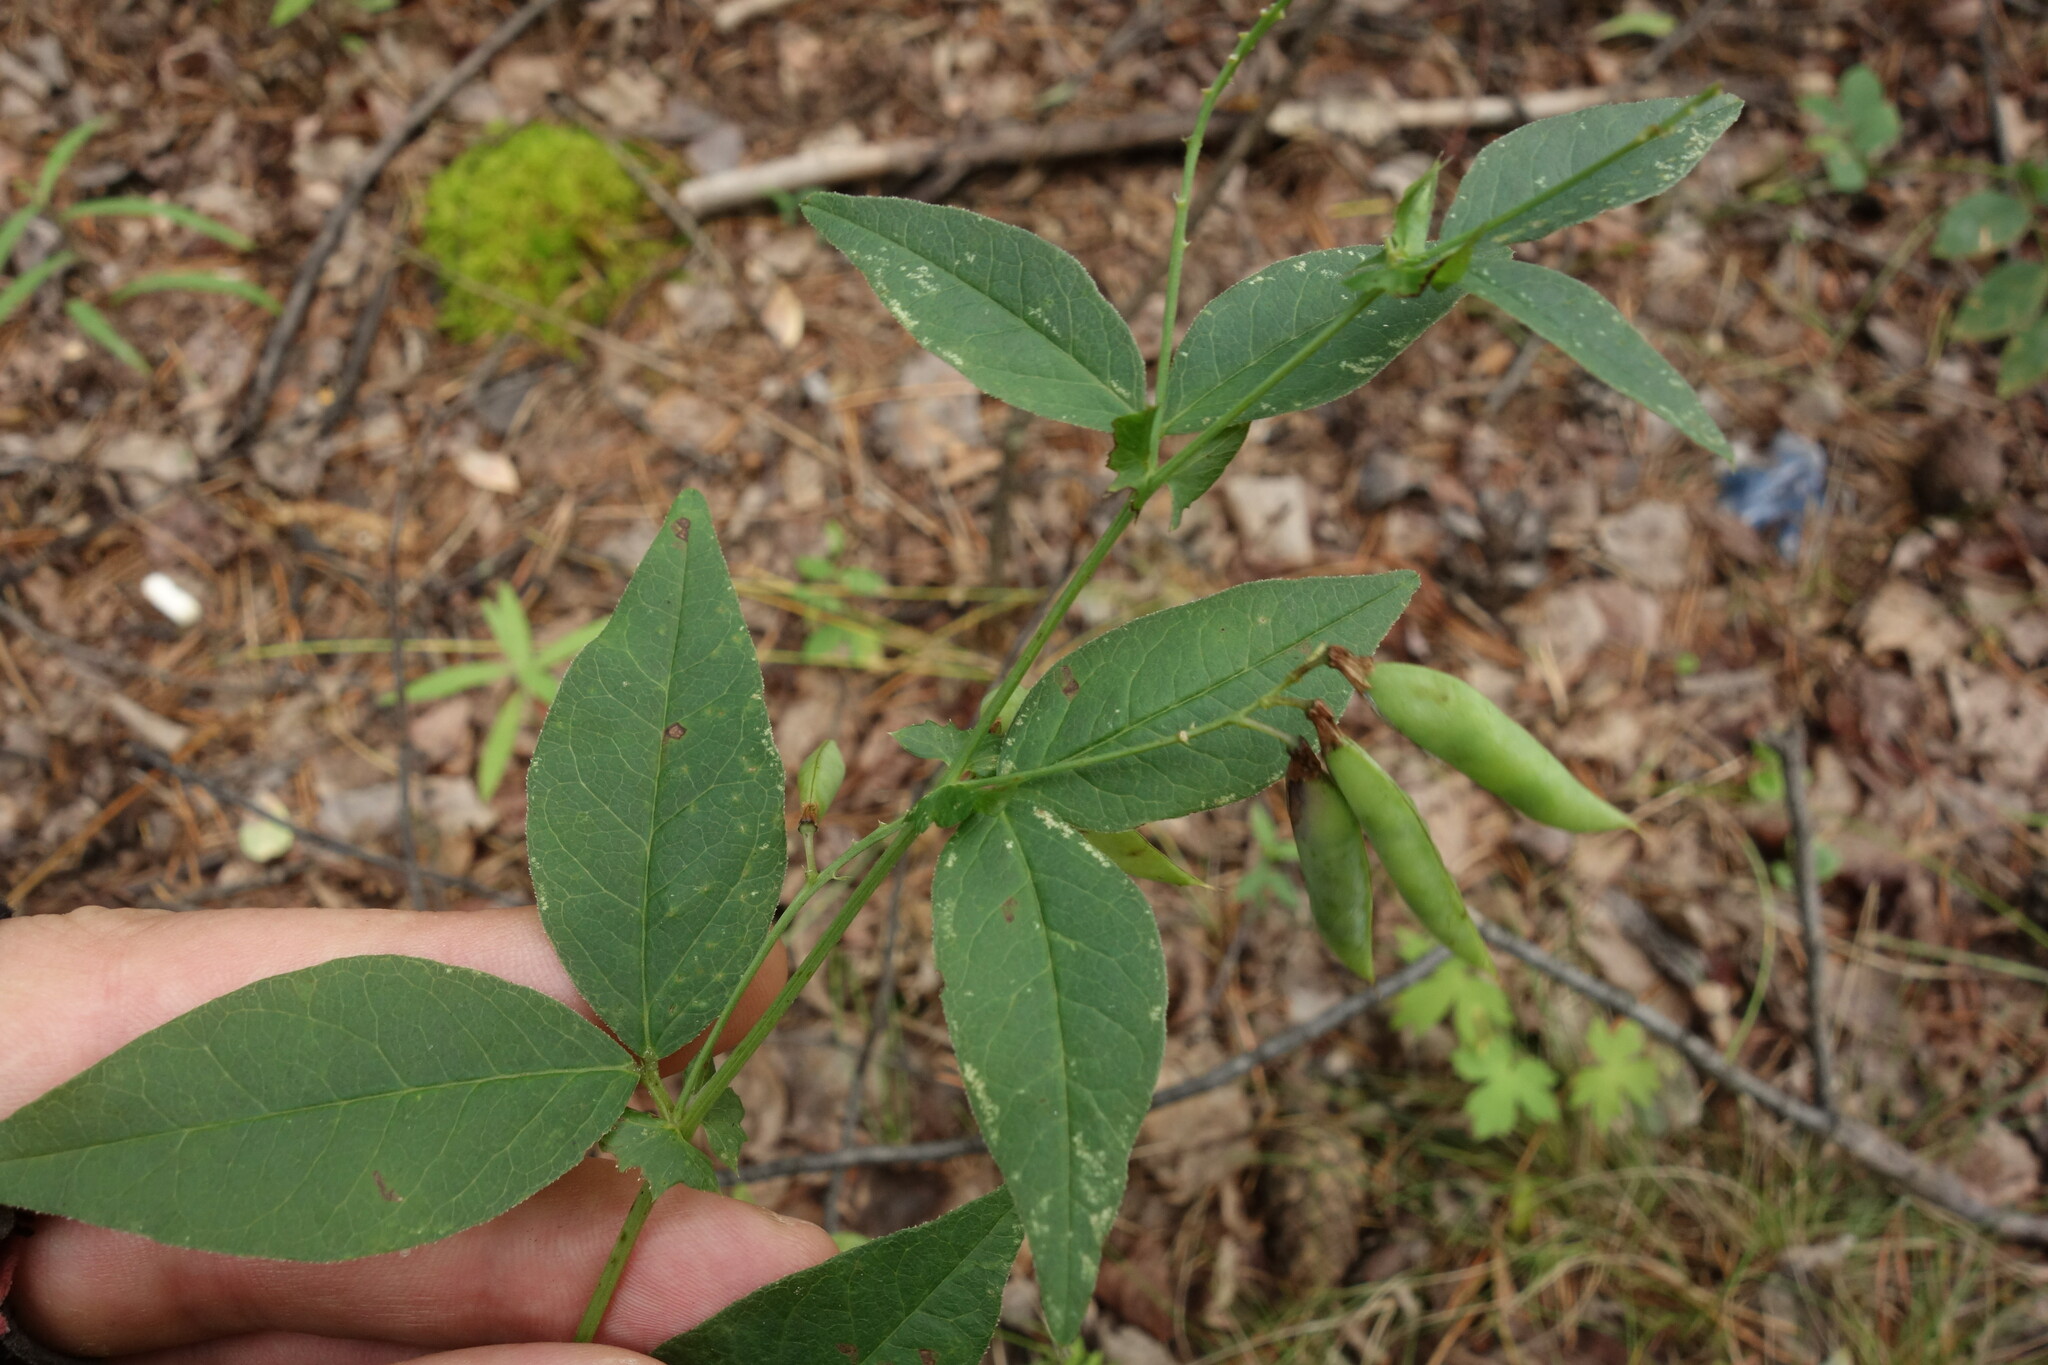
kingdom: Plantae
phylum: Tracheophyta
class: Magnoliopsida
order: Fabales
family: Fabaceae
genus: Vicia
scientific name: Vicia unijuga
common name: Two-leaf vetch
